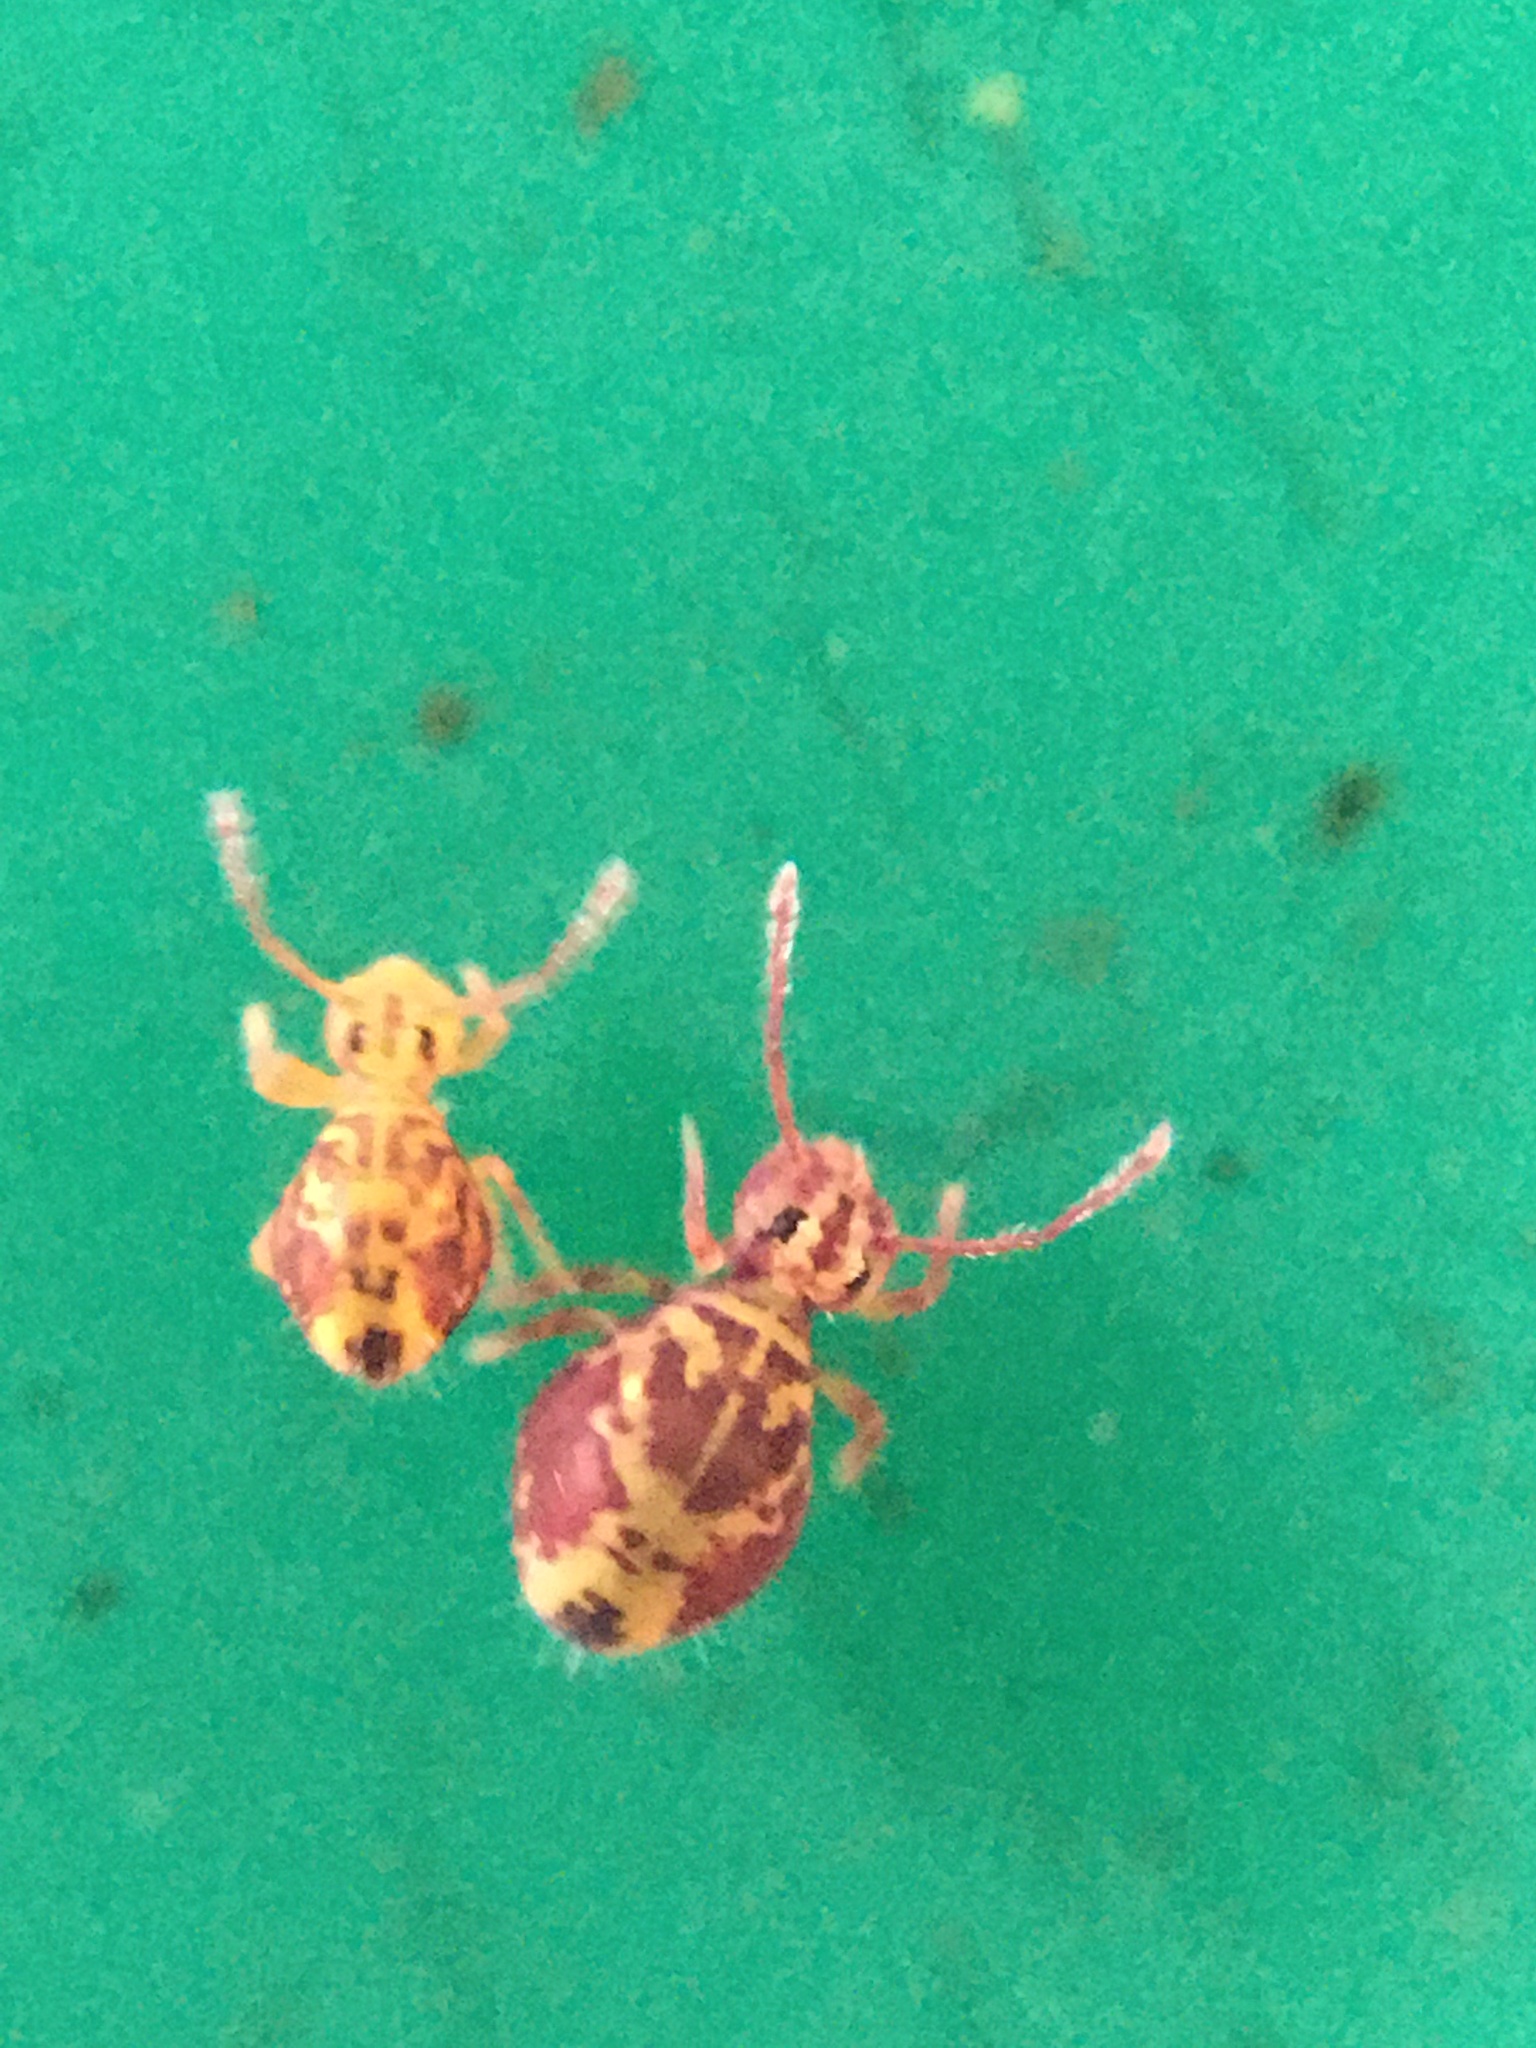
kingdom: Animalia
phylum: Arthropoda
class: Collembola
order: Symphypleona
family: Dicyrtomidae
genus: Dicyrtomina
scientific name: Dicyrtomina ornata
